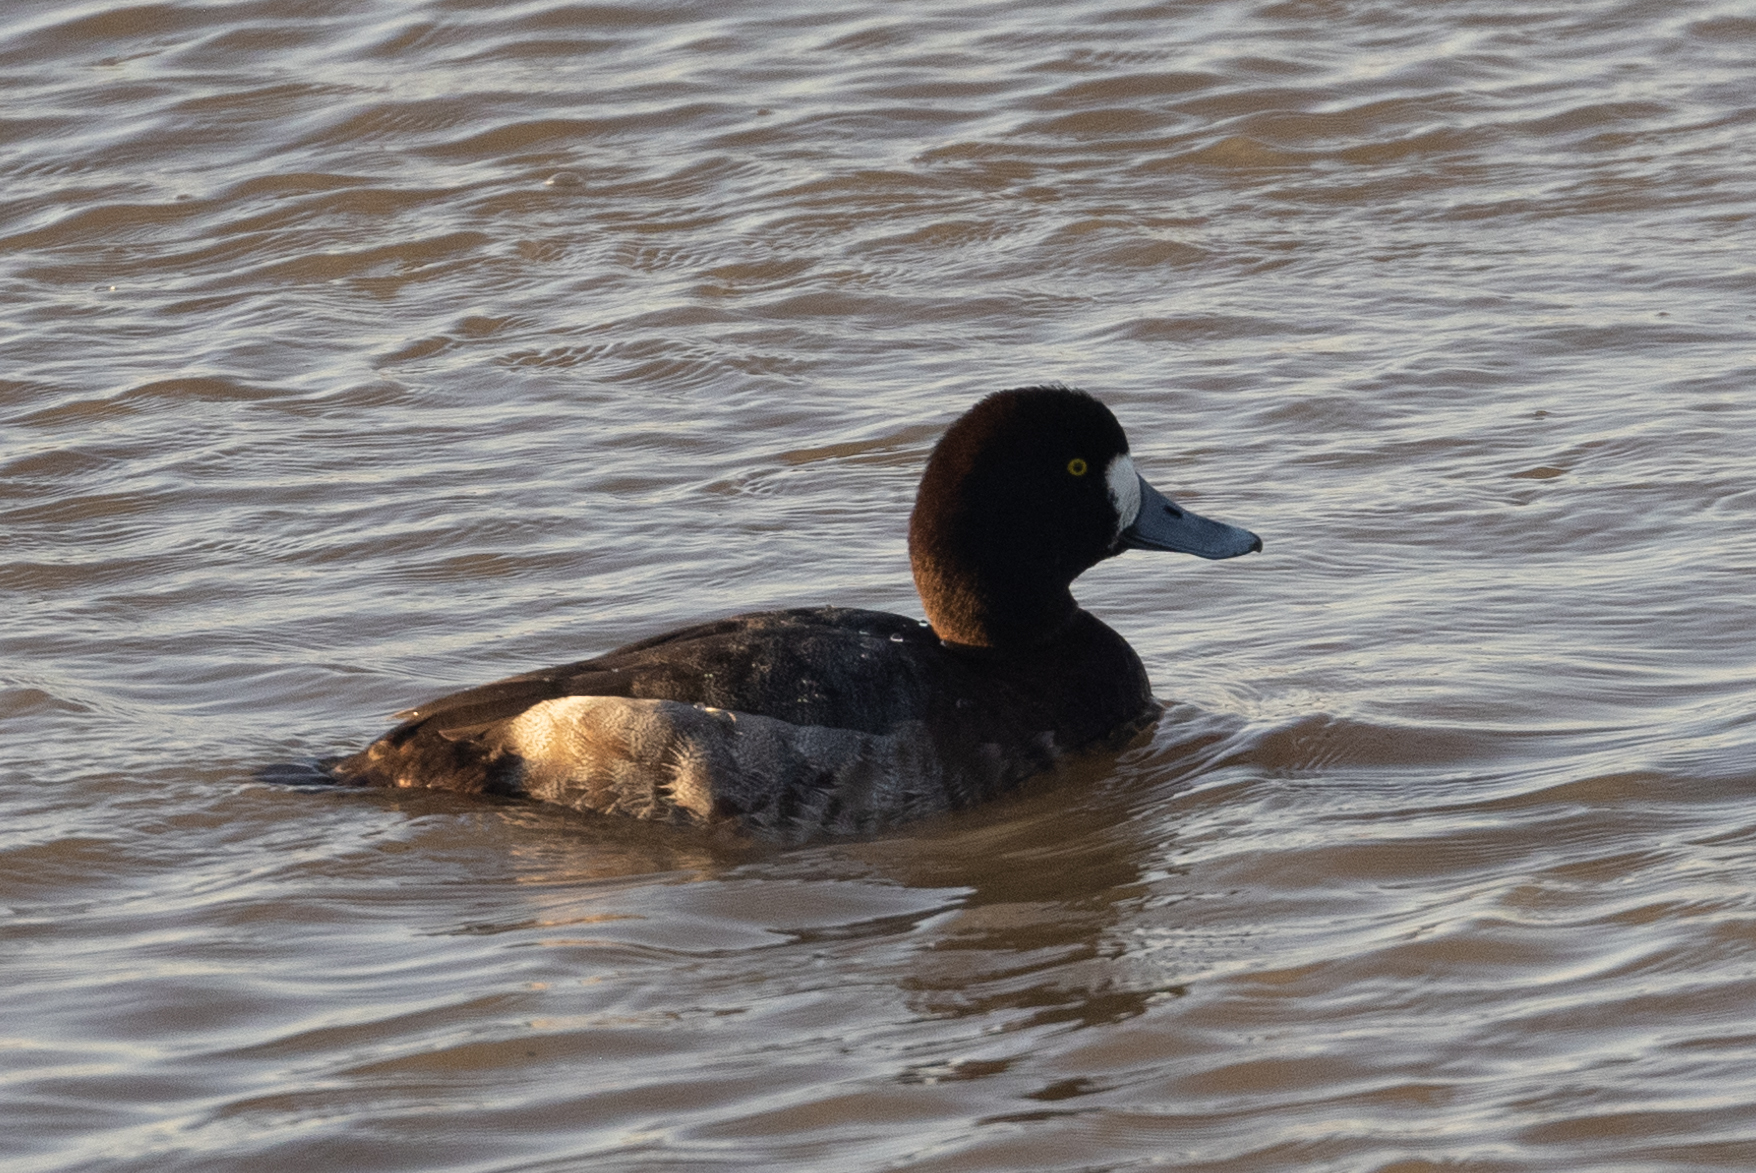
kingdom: Animalia
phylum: Chordata
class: Aves
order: Anseriformes
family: Anatidae
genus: Aythya
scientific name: Aythya marila
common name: Greater scaup
